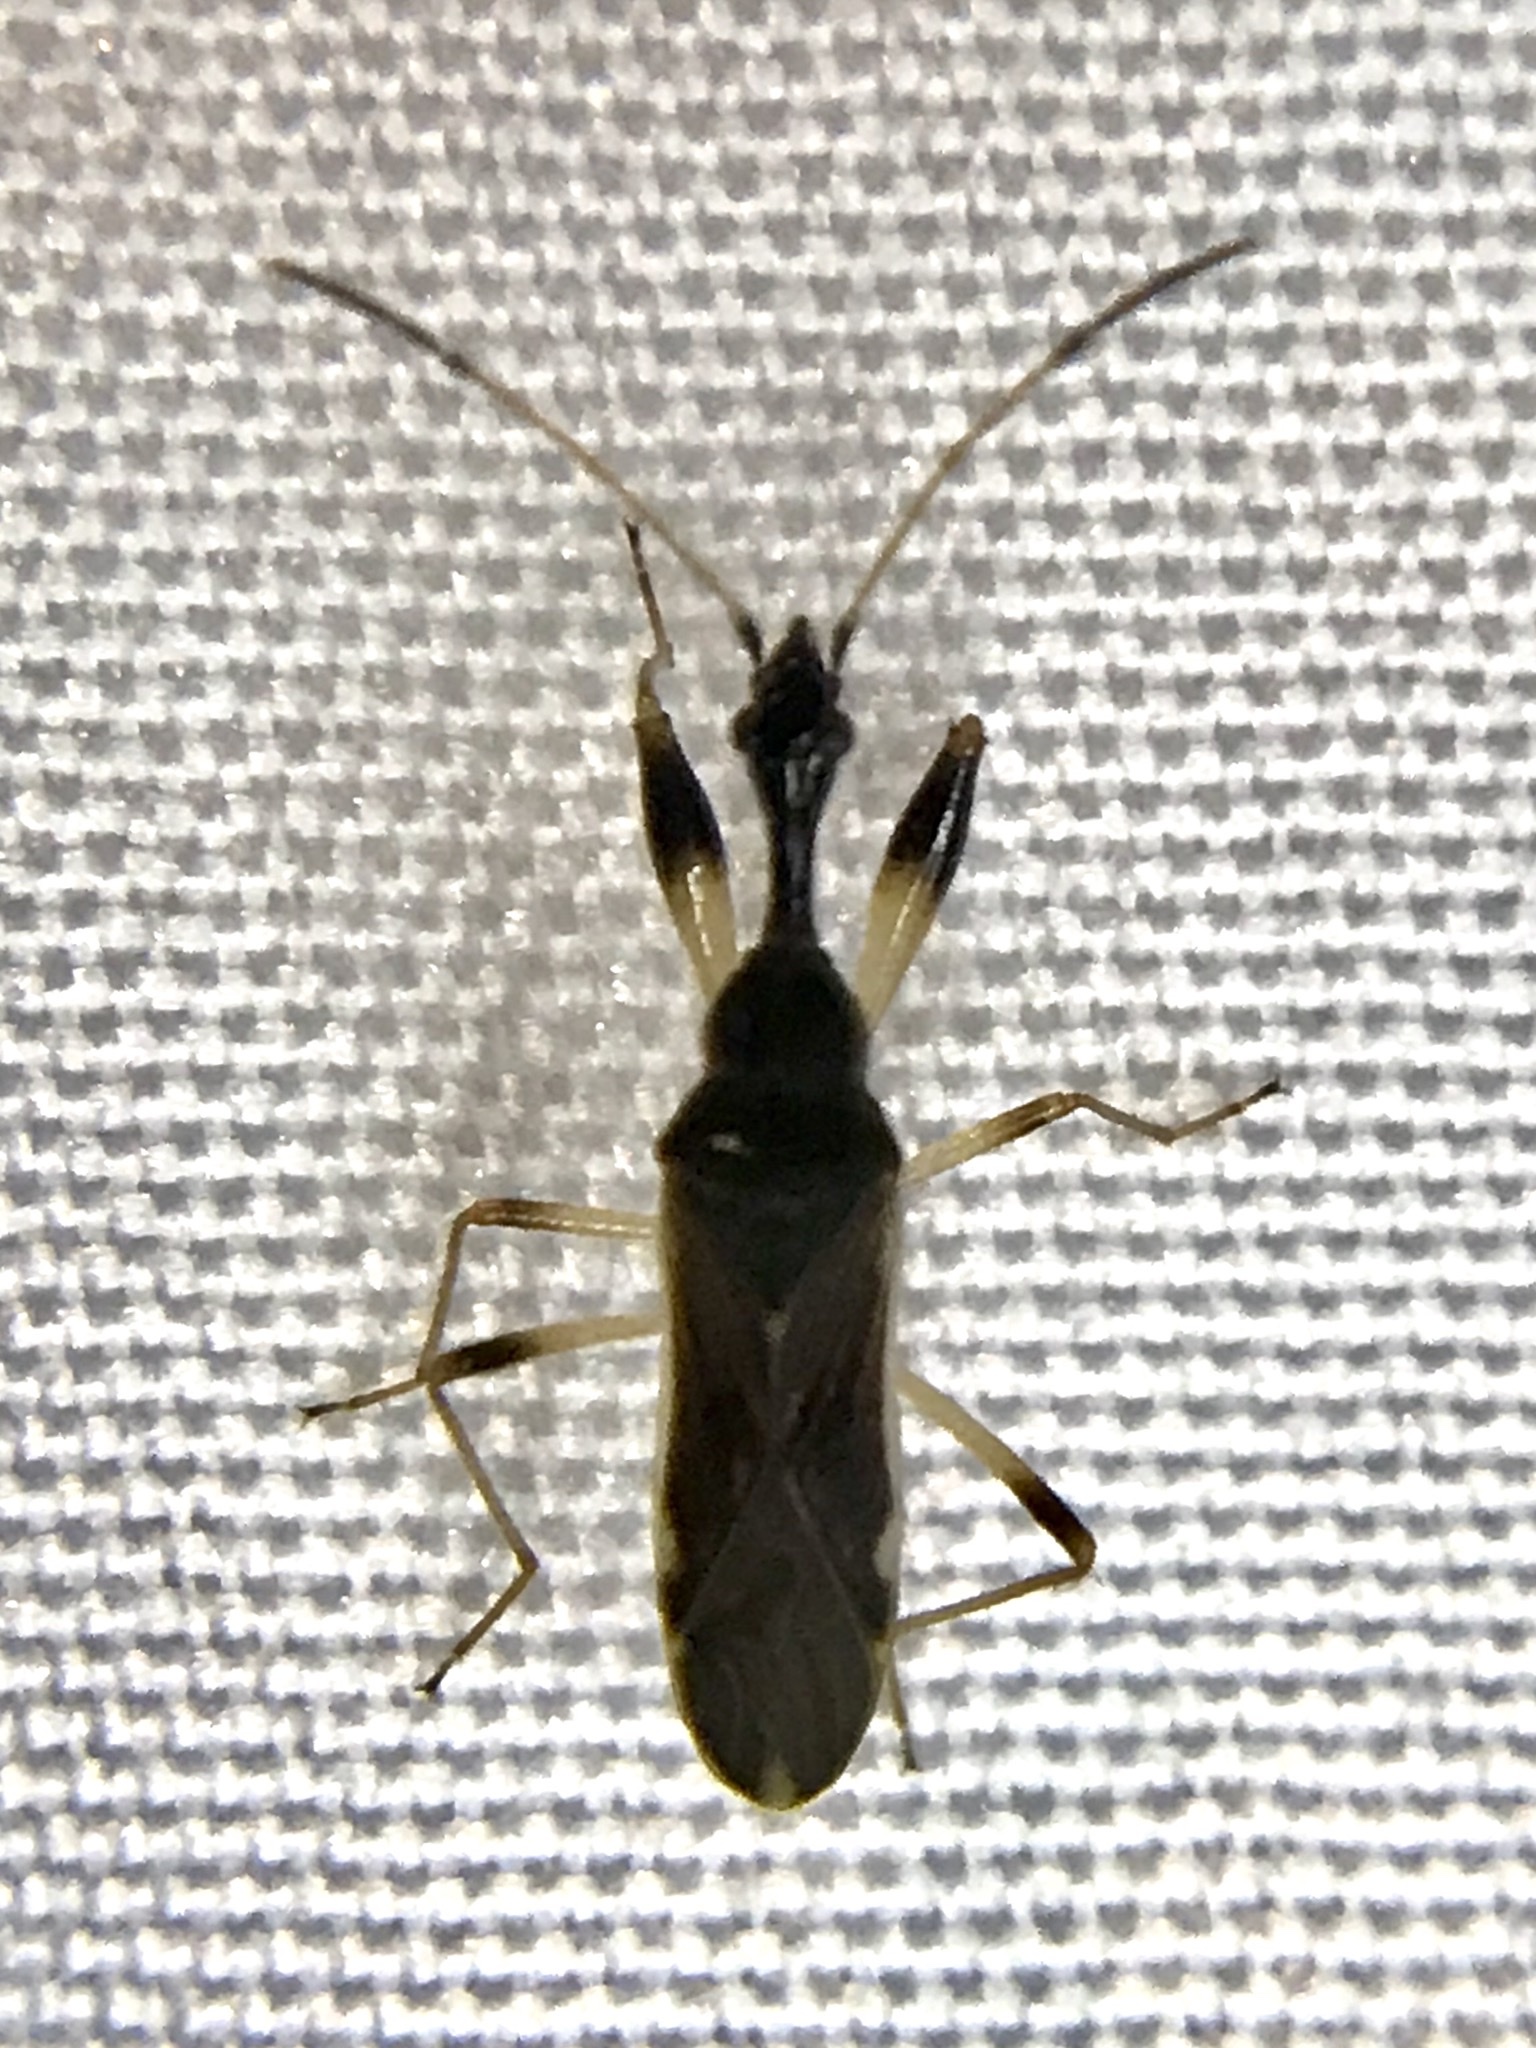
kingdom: Animalia
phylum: Arthropoda
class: Insecta
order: Hemiptera
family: Rhyparochromidae
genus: Myodocha
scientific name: Myodocha serripes
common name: Long-necked seed bug
